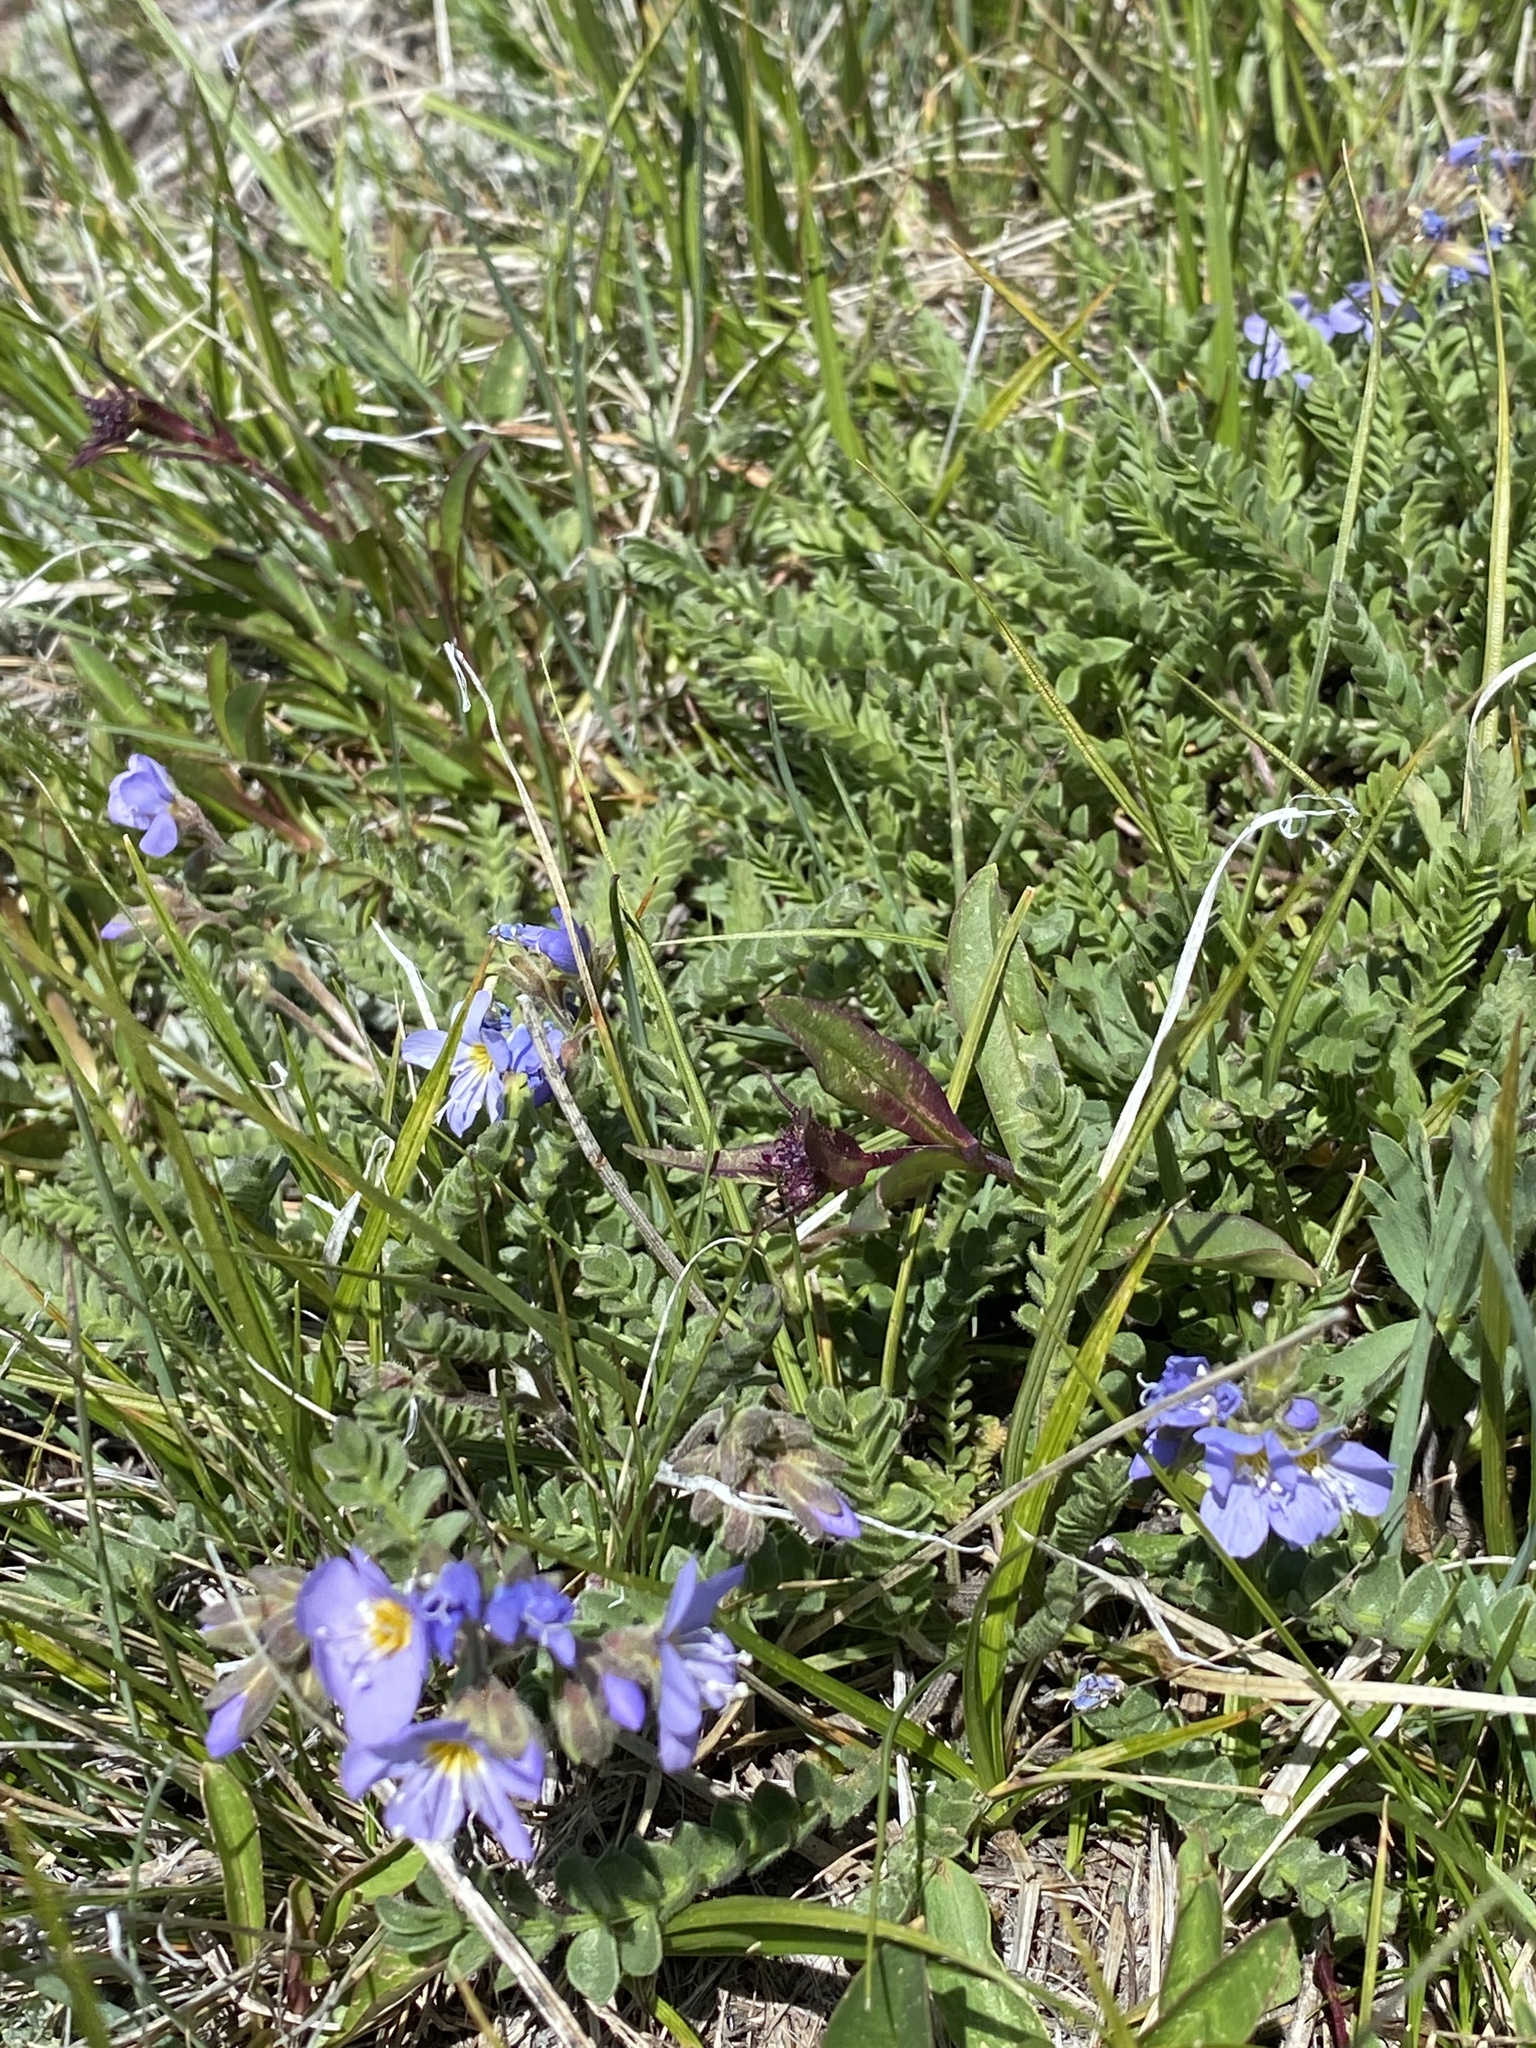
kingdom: Plantae
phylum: Tracheophyta
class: Magnoliopsida
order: Ericales
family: Polemoniaceae
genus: Polemonium
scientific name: Polemonium pulcherrimum
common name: Short jacob's-ladder
